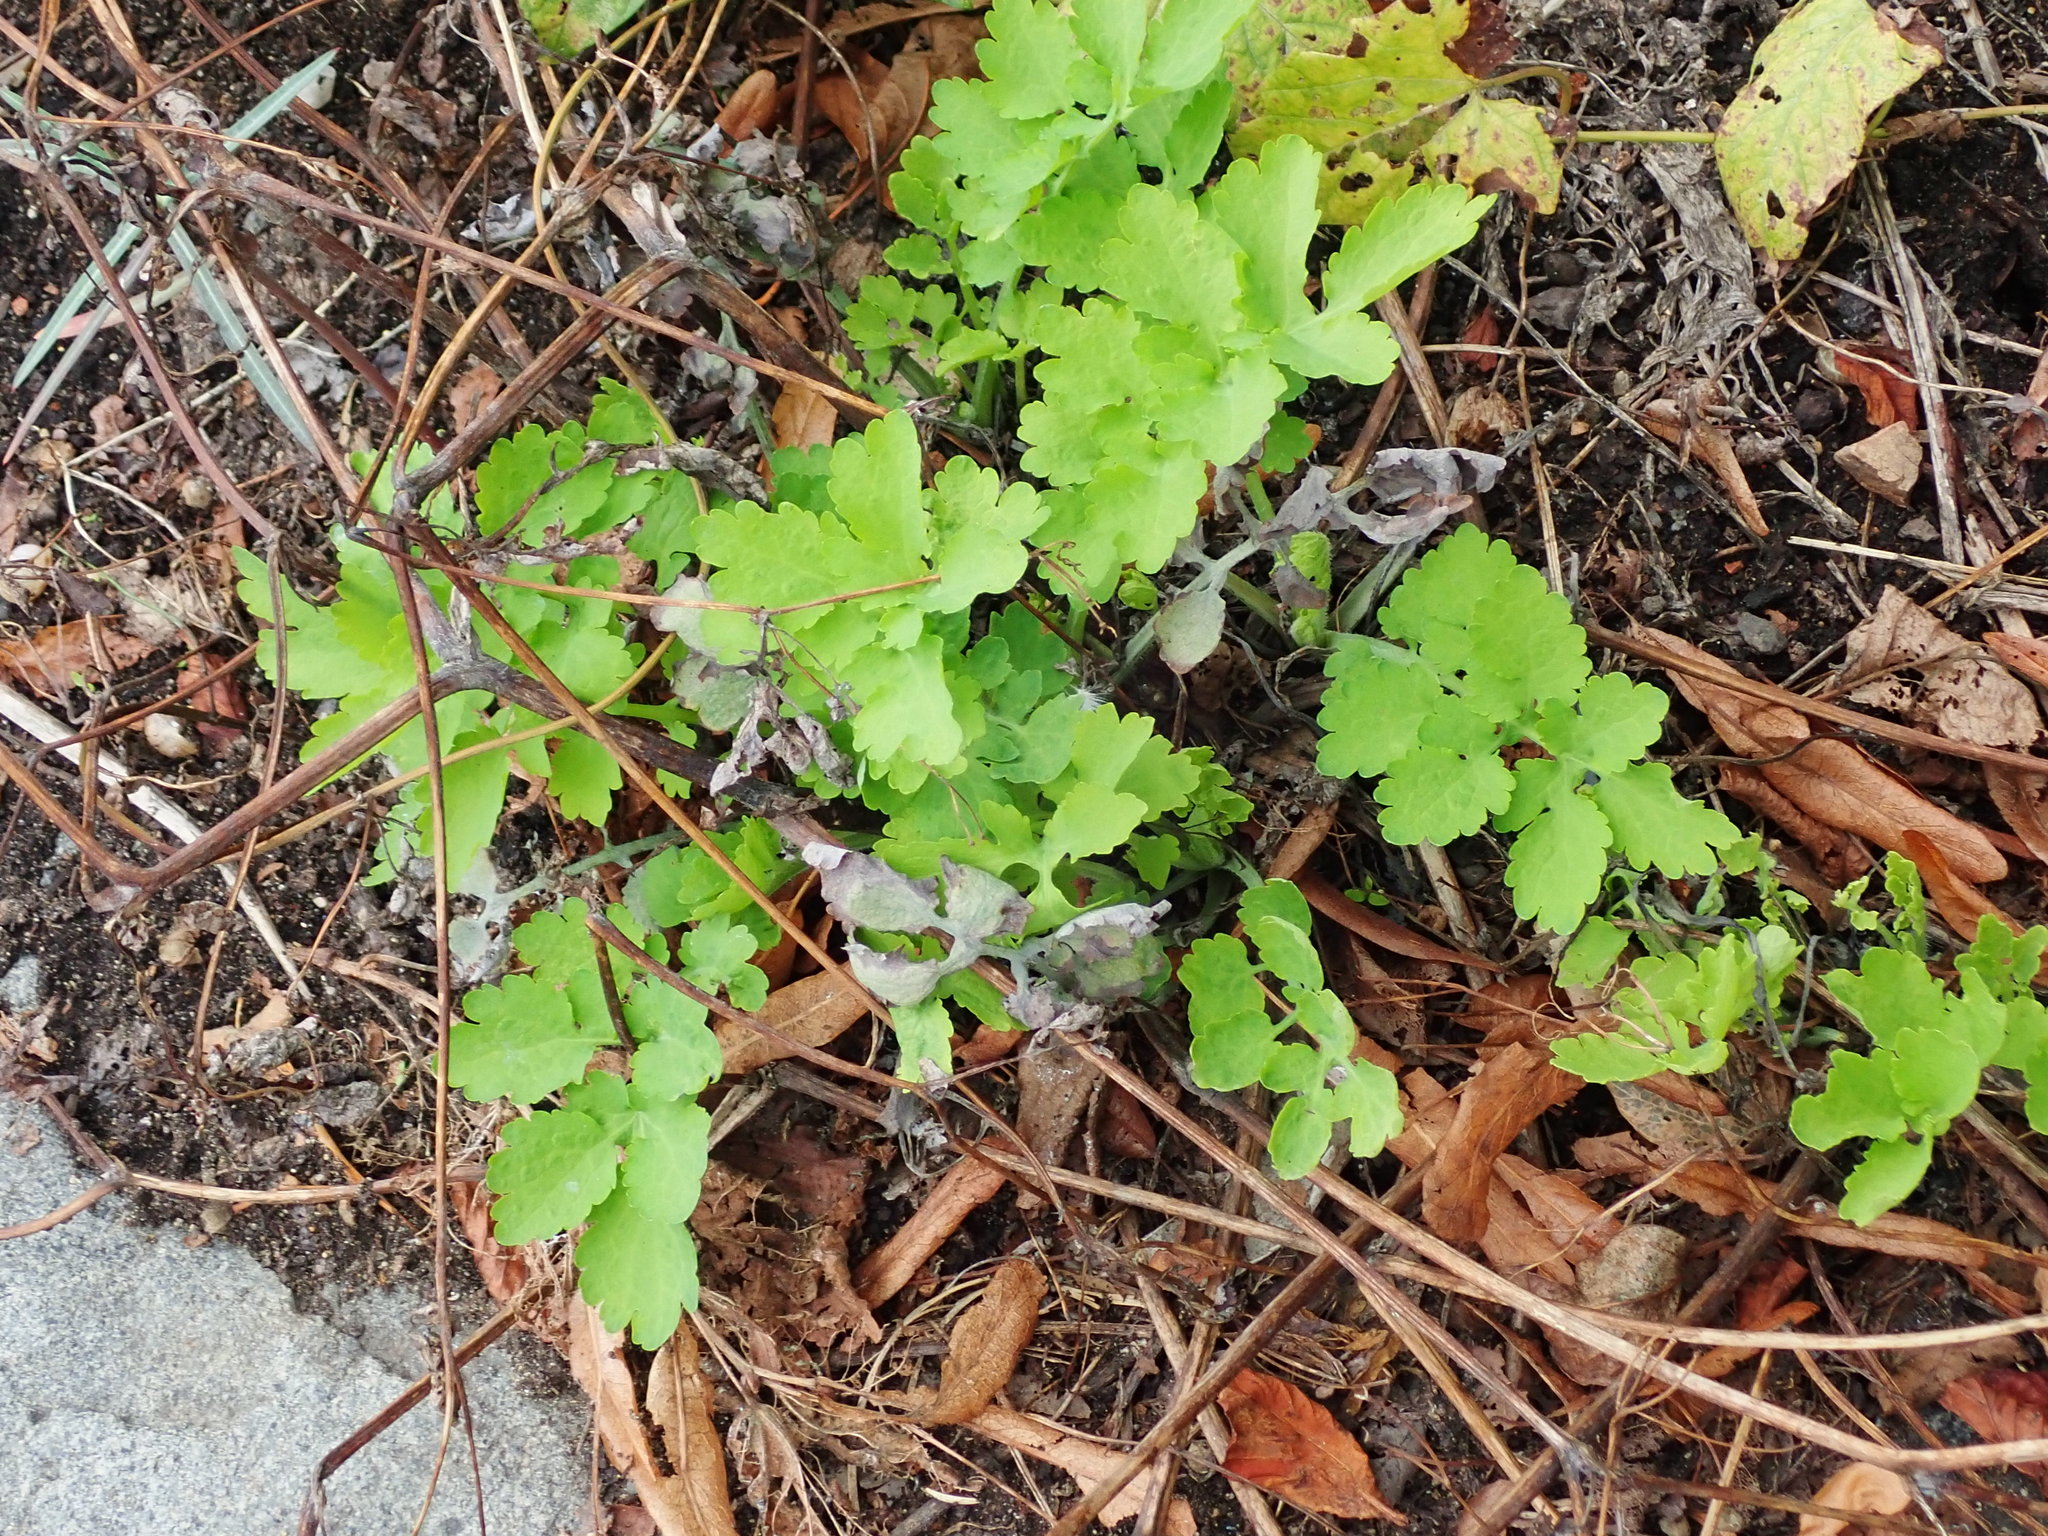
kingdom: Plantae
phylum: Tracheophyta
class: Magnoliopsida
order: Ranunculales
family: Papaveraceae
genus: Chelidonium
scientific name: Chelidonium majus
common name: Greater celandine
